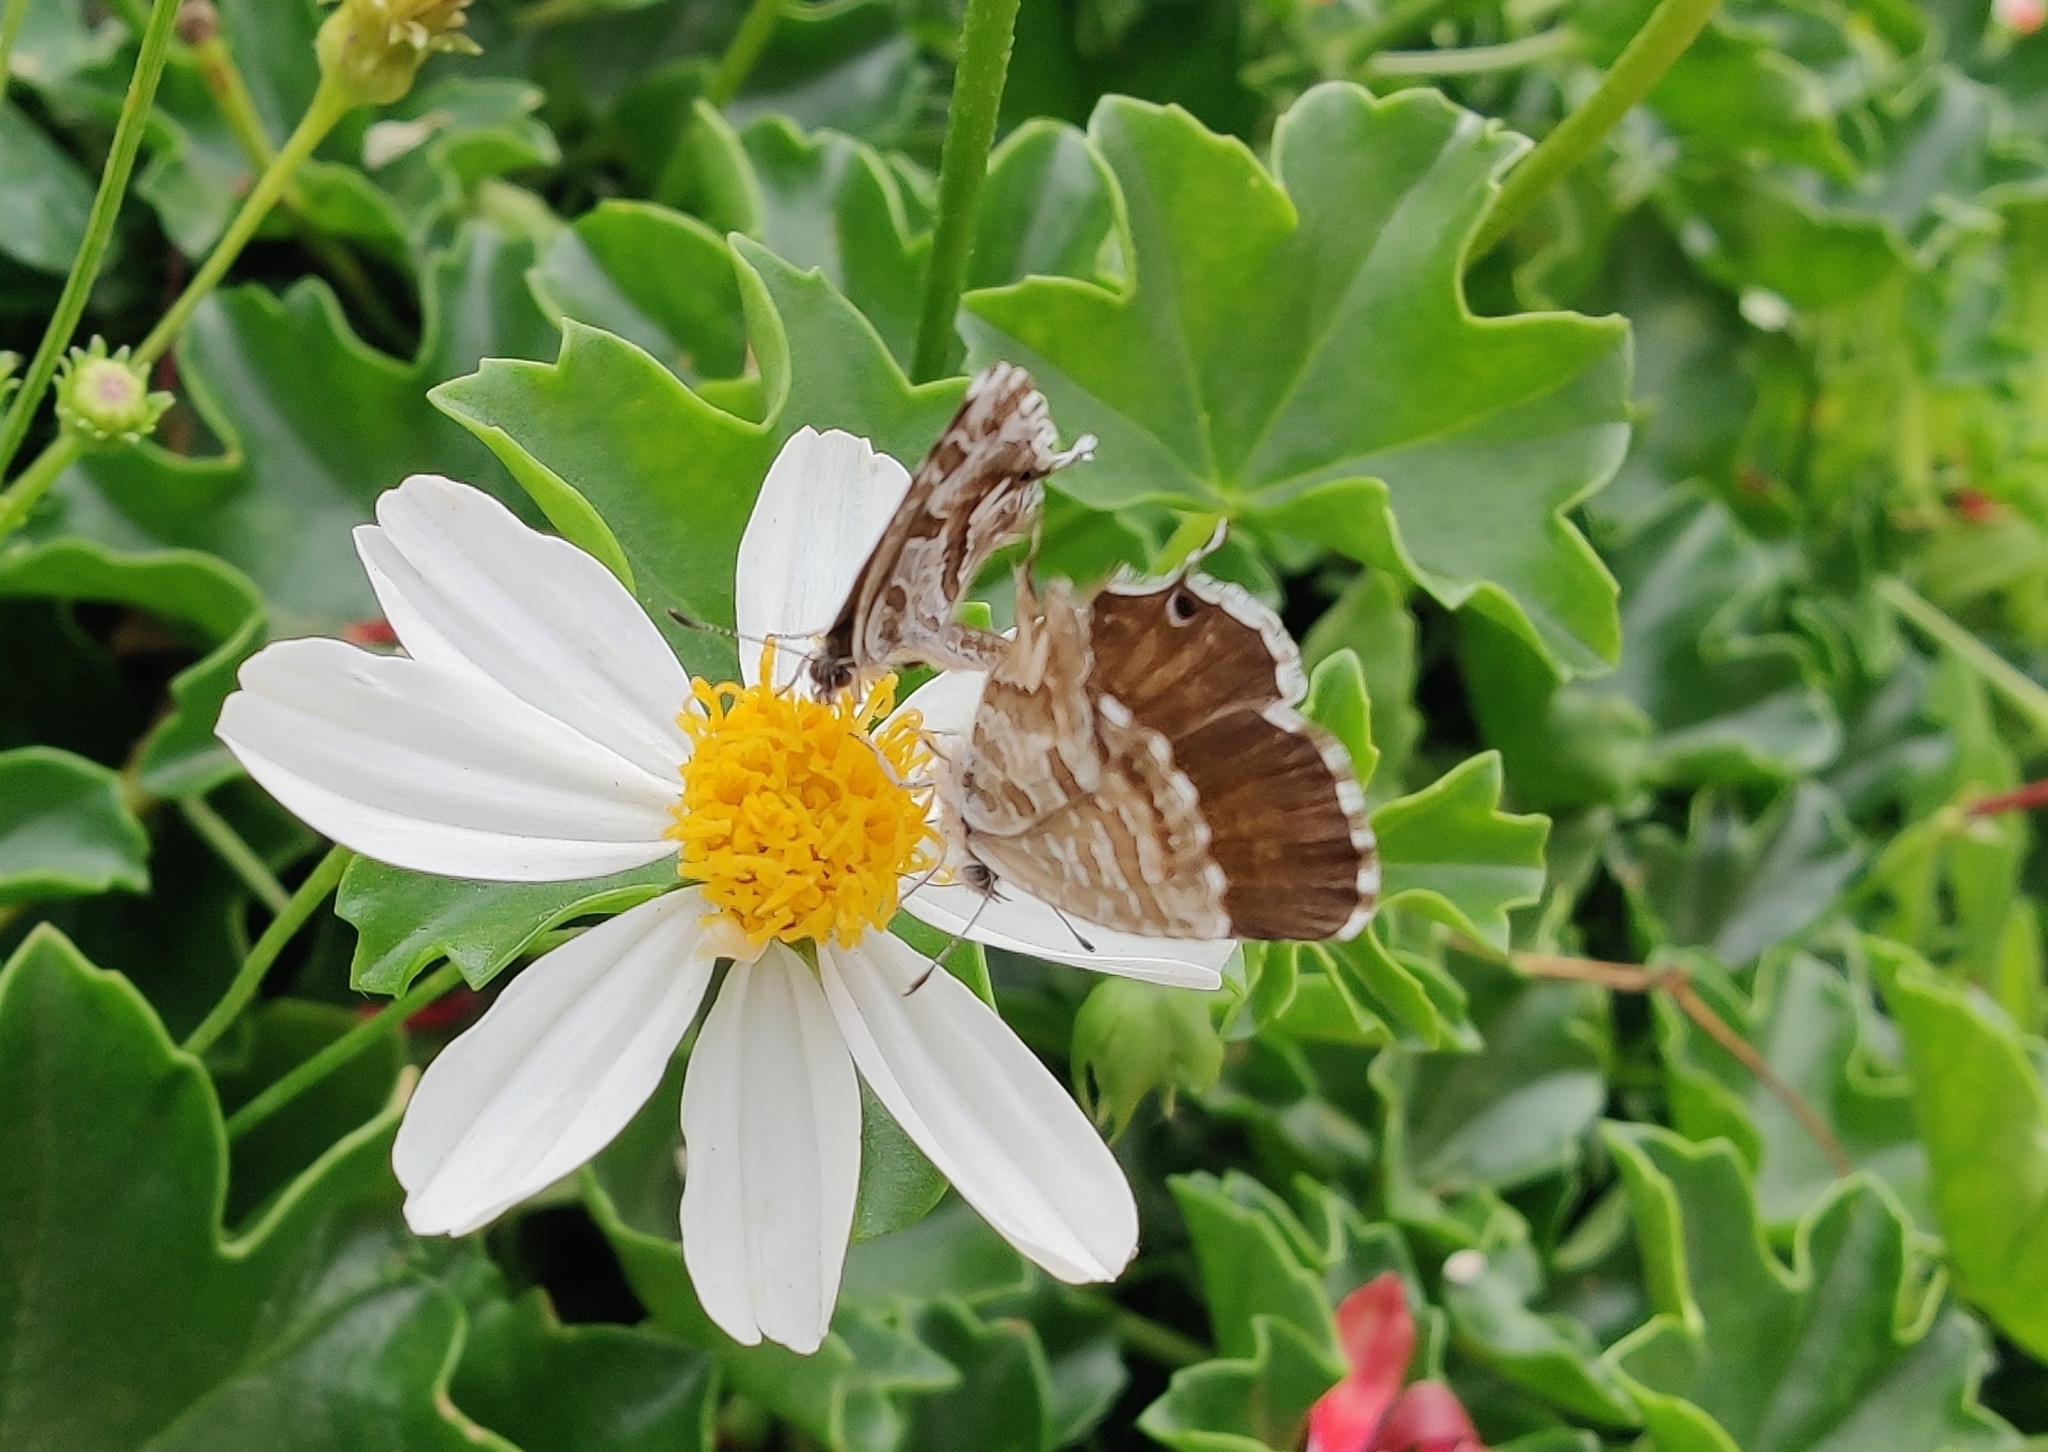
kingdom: Animalia
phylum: Arthropoda
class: Insecta
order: Lepidoptera
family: Lycaenidae
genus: Cacyreus
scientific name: Cacyreus marshalli
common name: Geranium bronze
